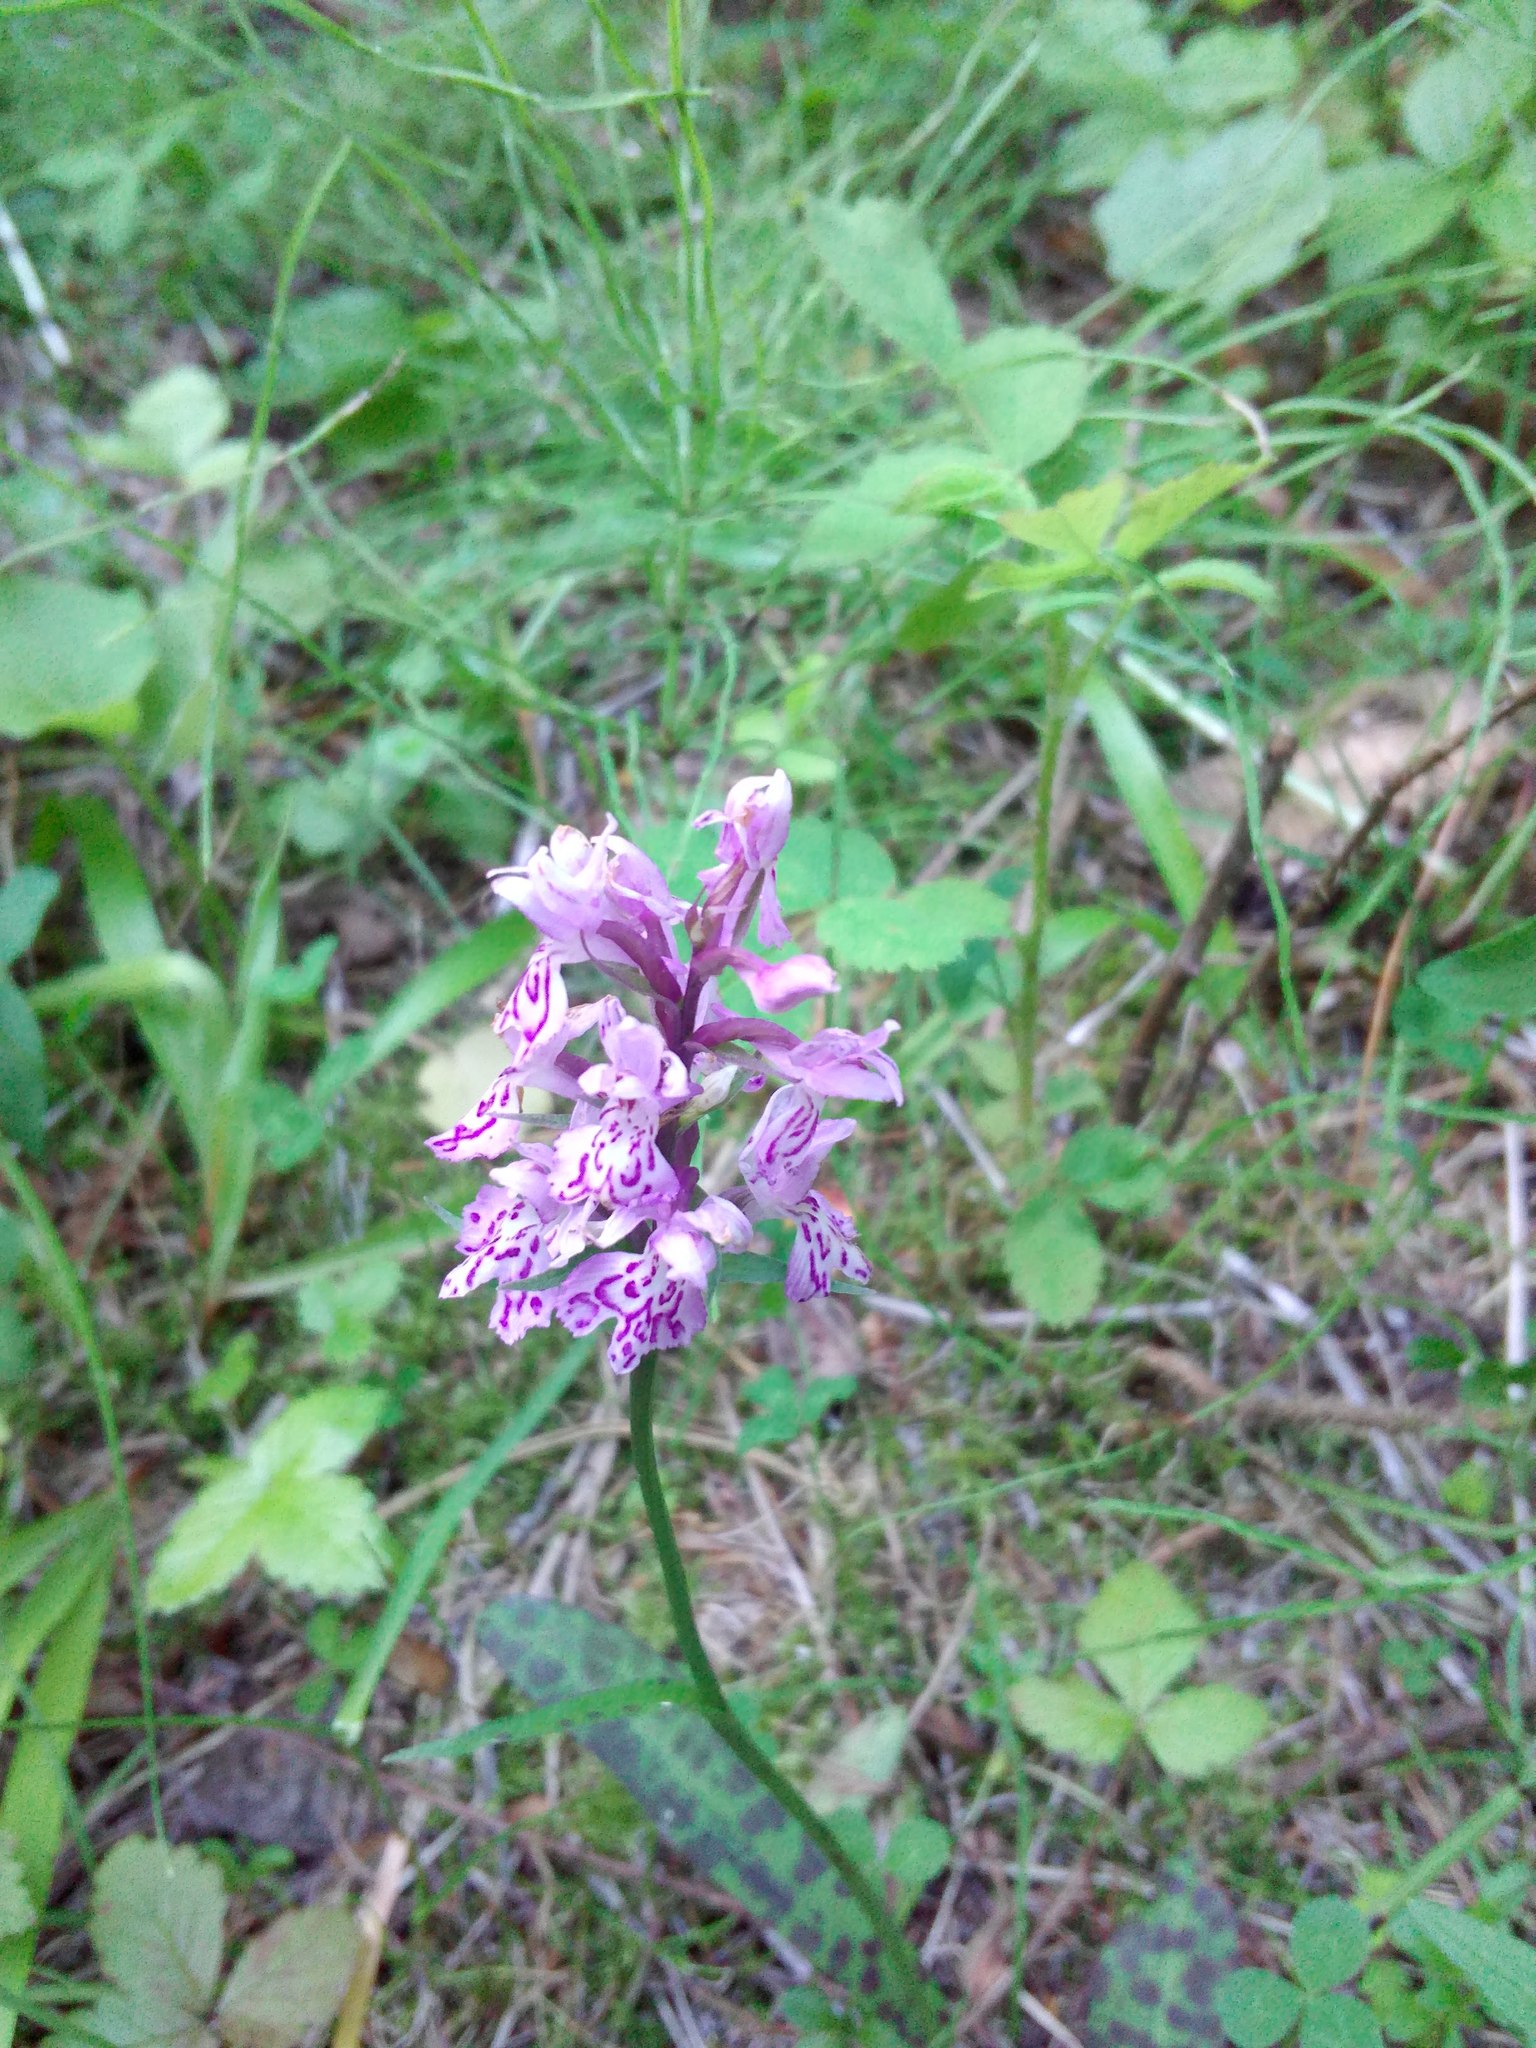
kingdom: Plantae
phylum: Tracheophyta
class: Liliopsida
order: Asparagales
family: Orchidaceae
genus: Dactylorhiza
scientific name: Dactylorhiza maculata
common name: Heath spotted-orchid
